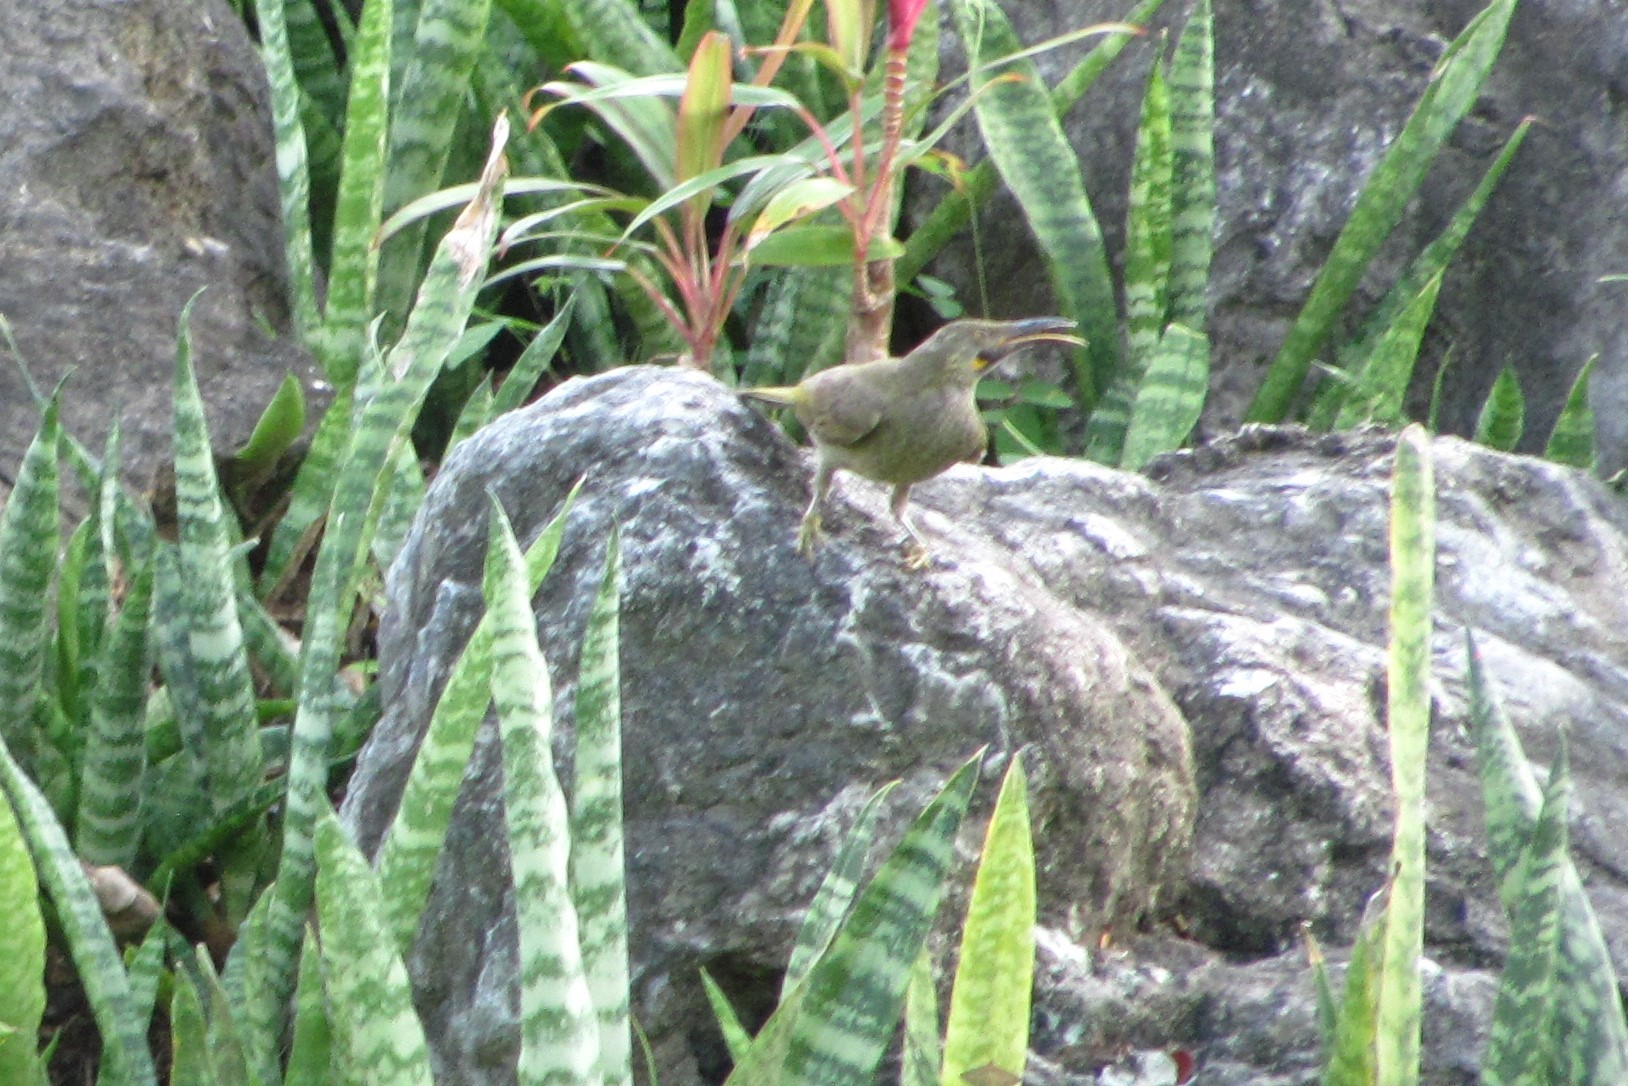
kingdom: Animalia
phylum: Chordata
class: Aves
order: Passeriformes
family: Meliphagidae
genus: Foulehaio
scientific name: Foulehaio procerior
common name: Kikau
